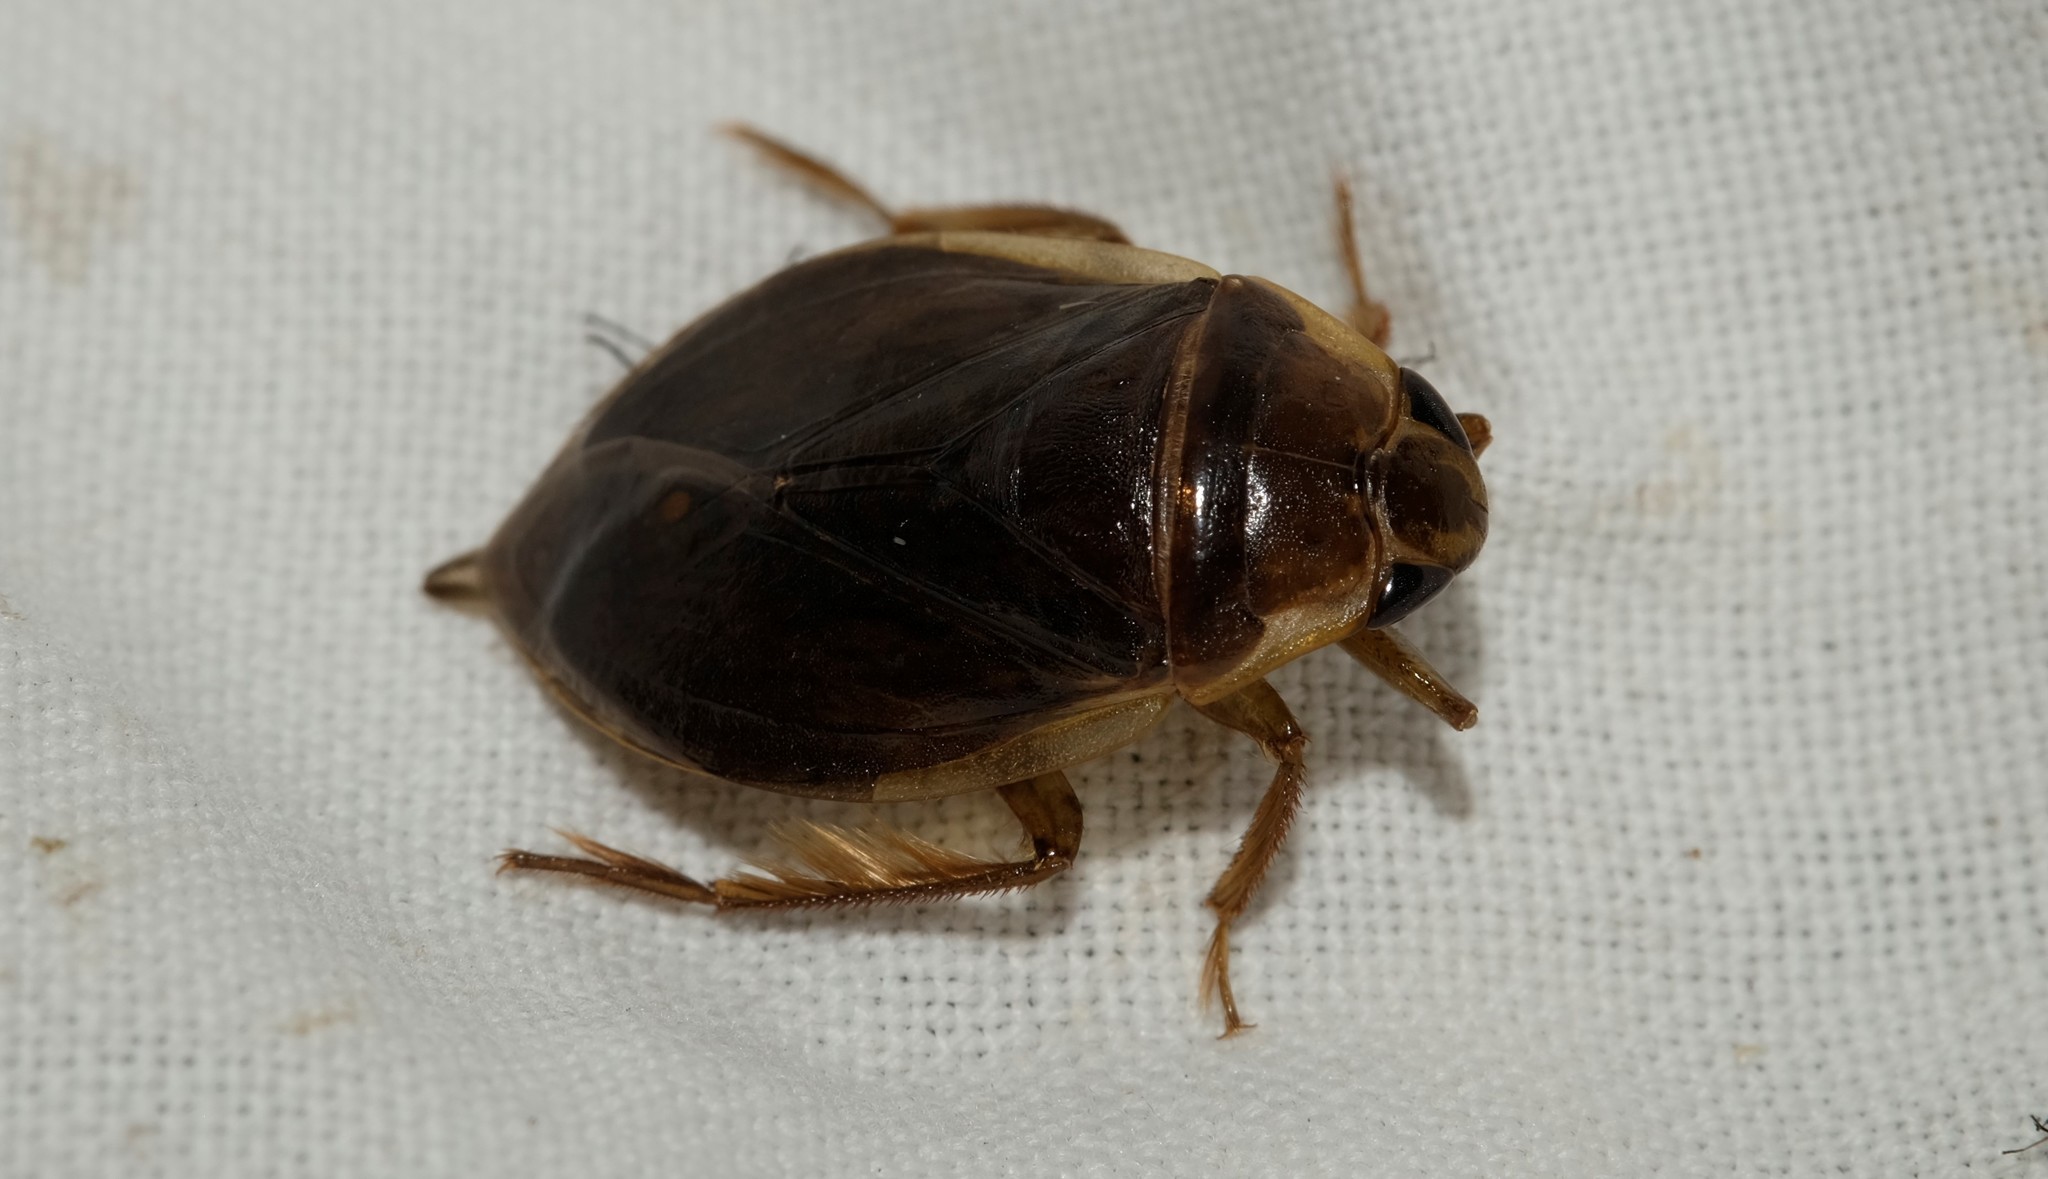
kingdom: Animalia
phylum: Arthropoda
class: Insecta
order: Hemiptera
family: Belostomatidae
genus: Diplonychus
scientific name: Diplonychus eques
